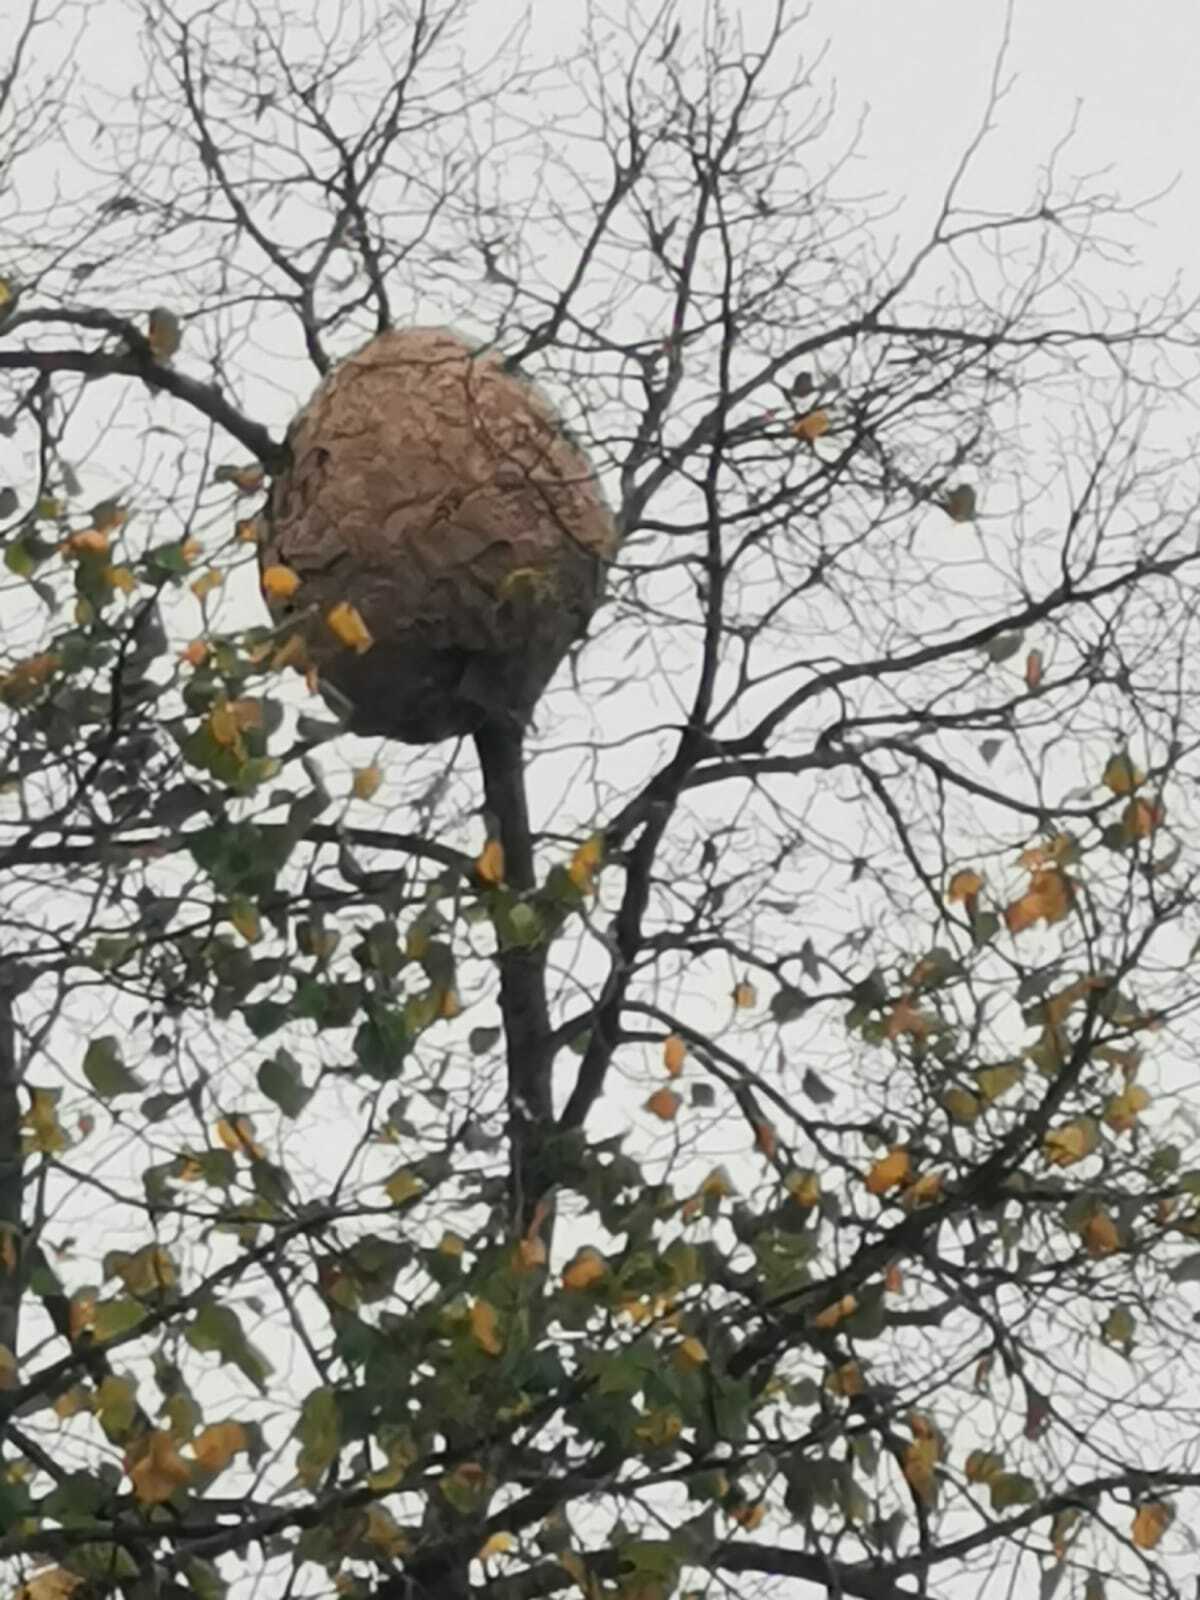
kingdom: Animalia
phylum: Arthropoda
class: Insecta
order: Hymenoptera
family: Vespidae
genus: Vespa
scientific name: Vespa velutina
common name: Asian hornet
